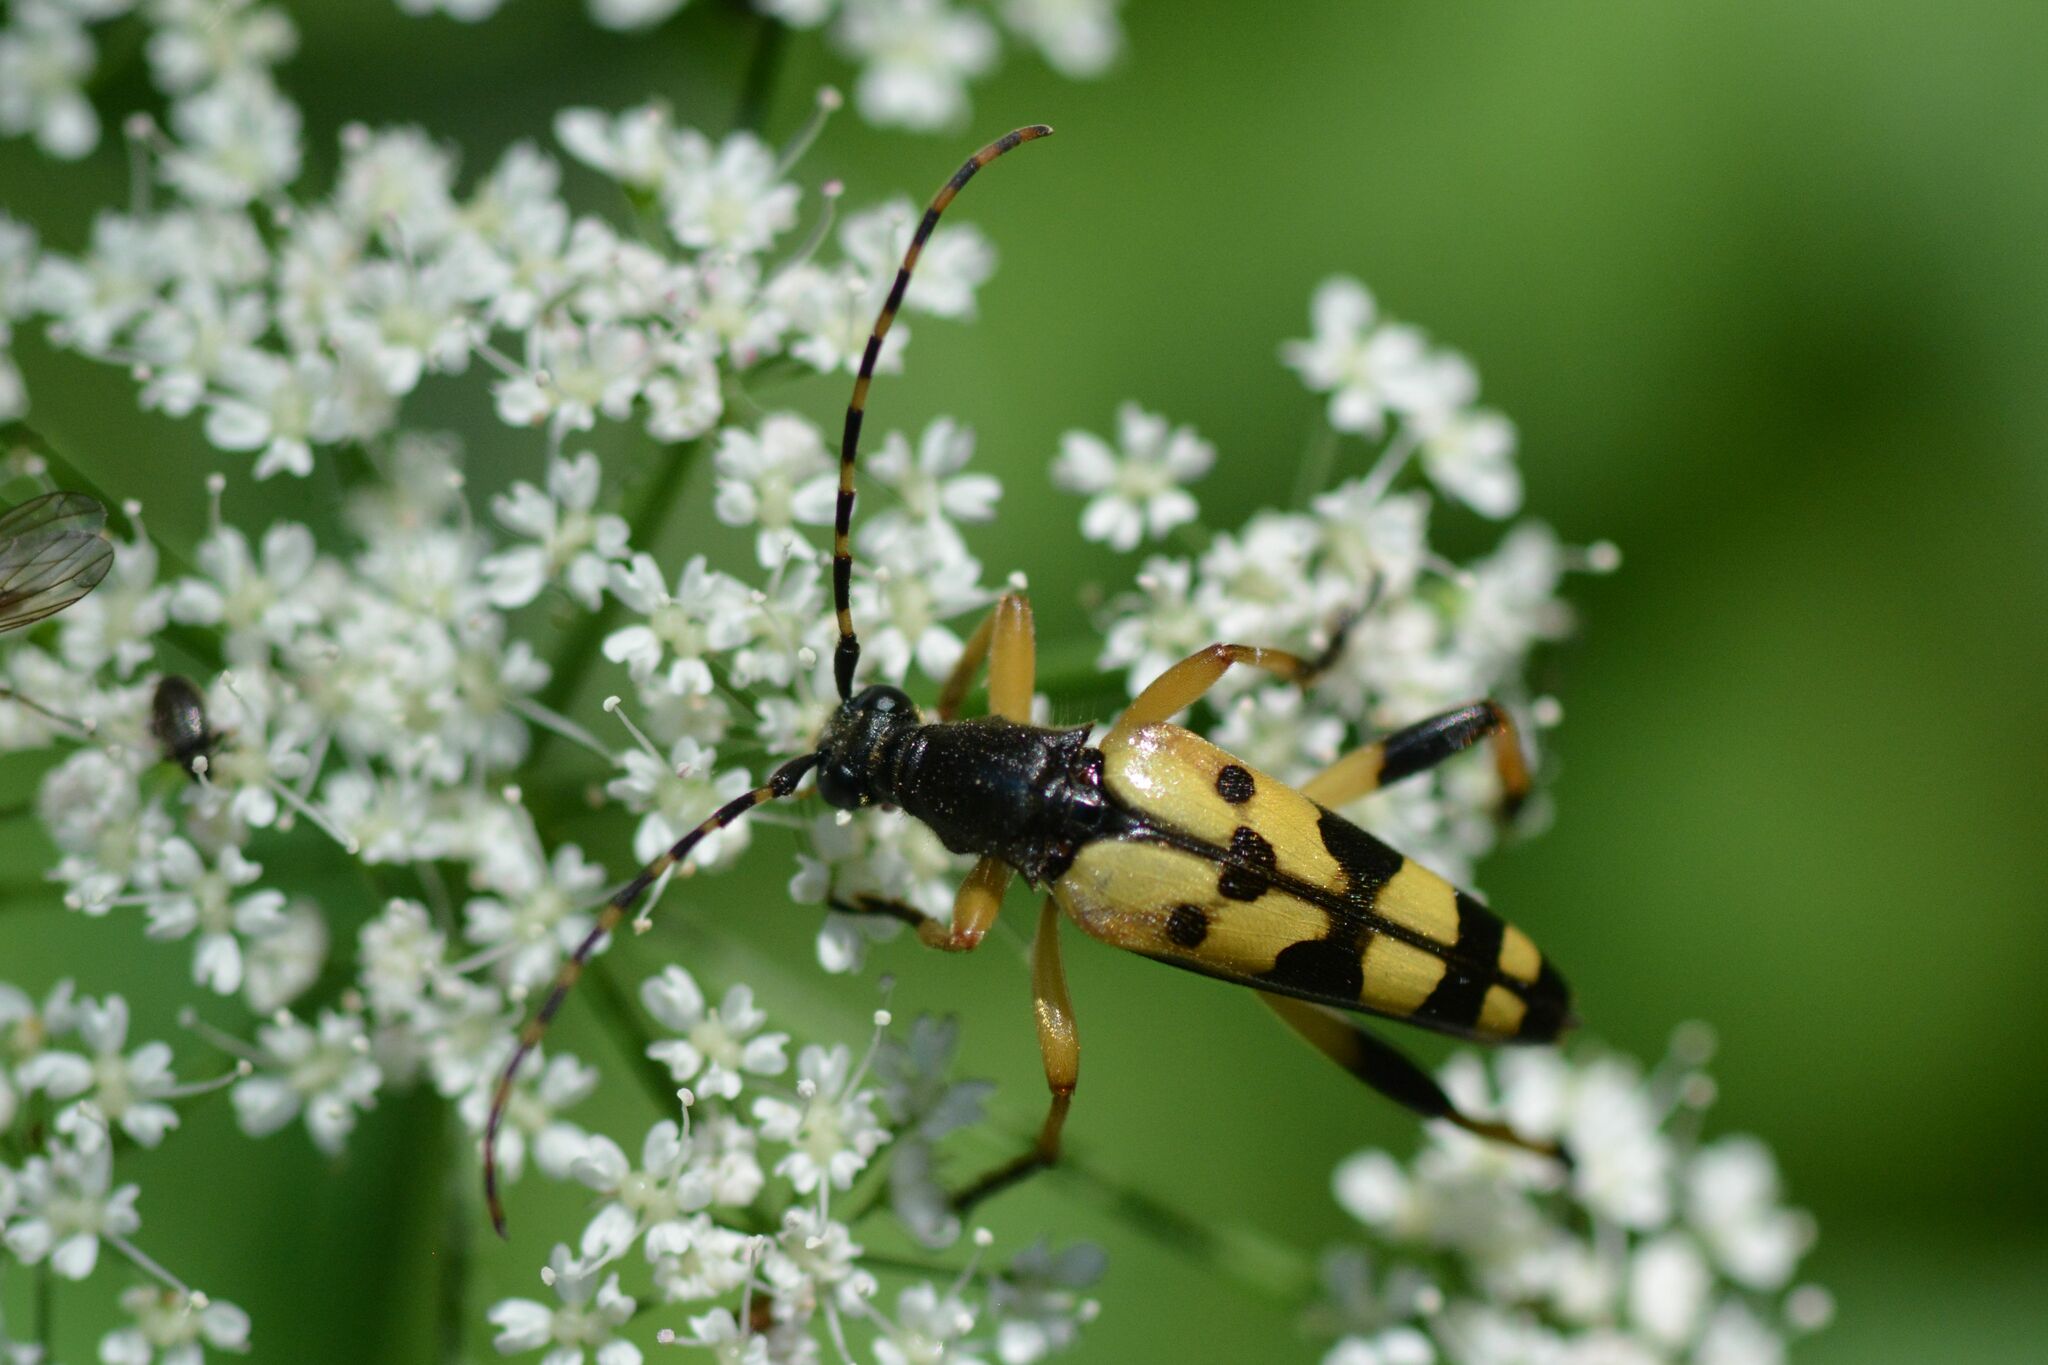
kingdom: Animalia
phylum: Arthropoda
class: Insecta
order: Coleoptera
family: Cerambycidae
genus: Rutpela
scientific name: Rutpela maculata
